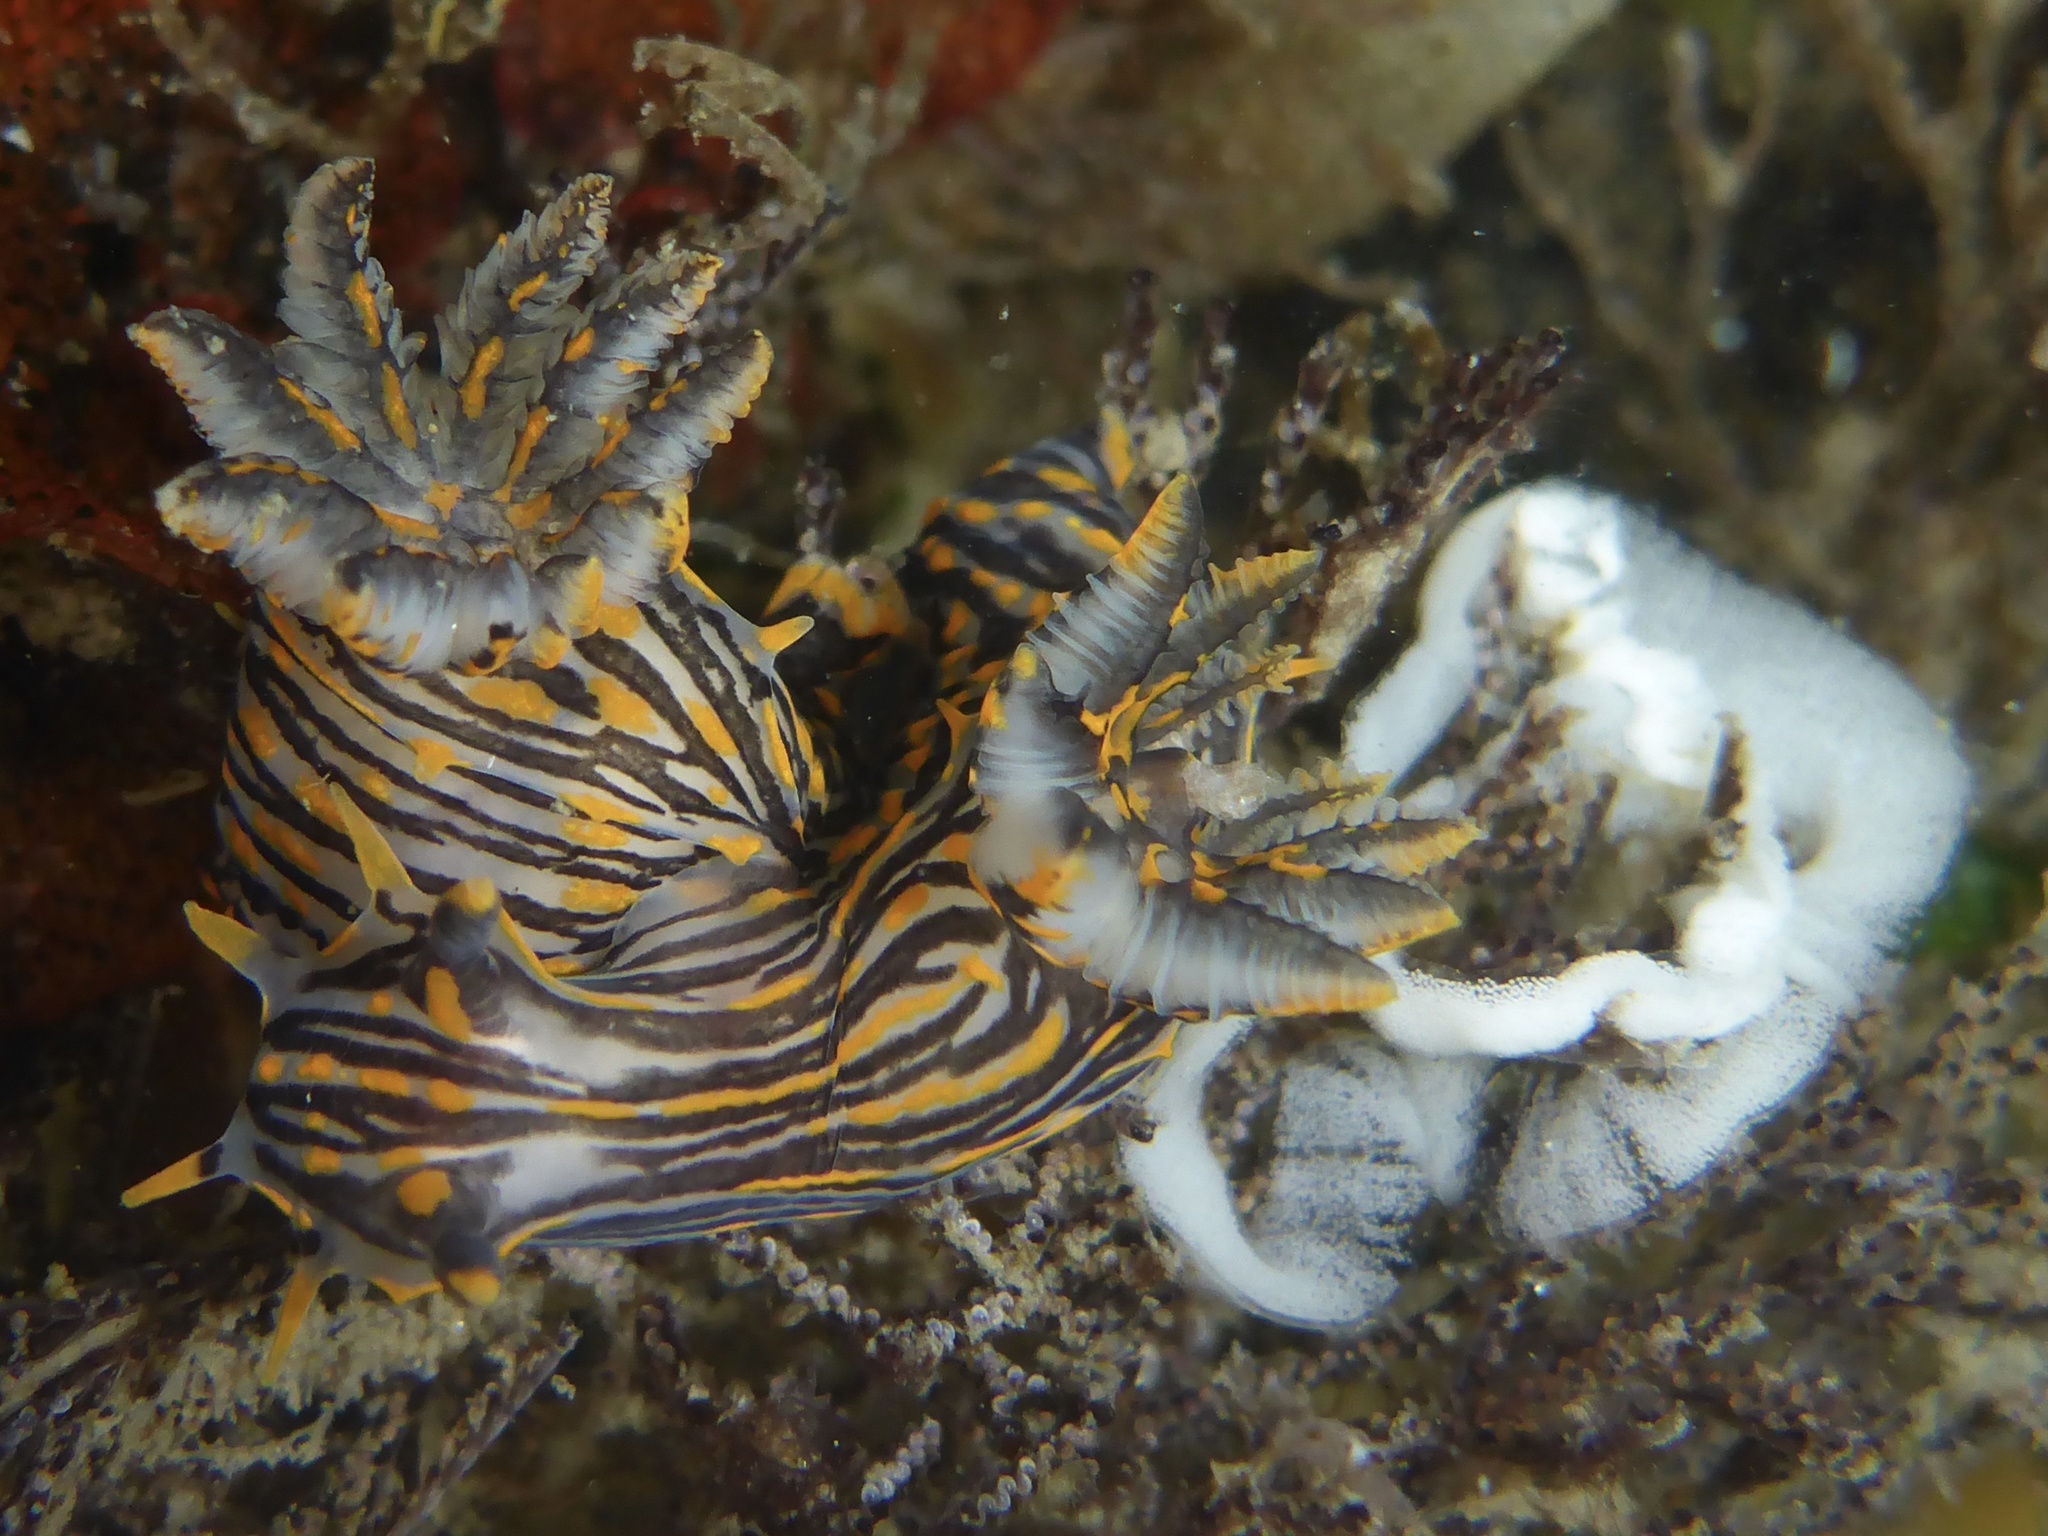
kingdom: Animalia
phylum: Mollusca
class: Gastropoda
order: Nudibranchia
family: Polyceridae
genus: Polycera
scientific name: Polycera atra
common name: Orange-spike polycera
